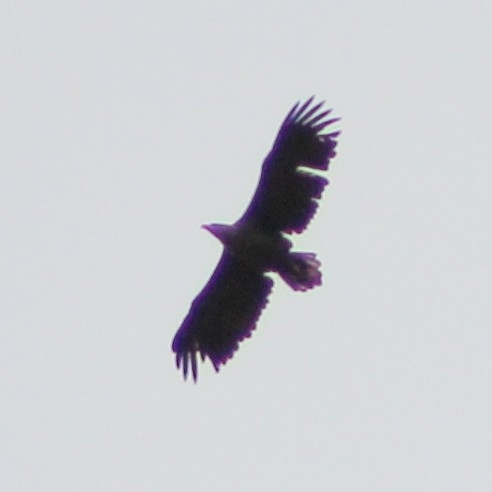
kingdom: Animalia
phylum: Chordata
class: Aves
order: Accipitriformes
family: Accipitridae
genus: Haliaeetus
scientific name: Haliaeetus albicilla
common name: White-tailed eagle
